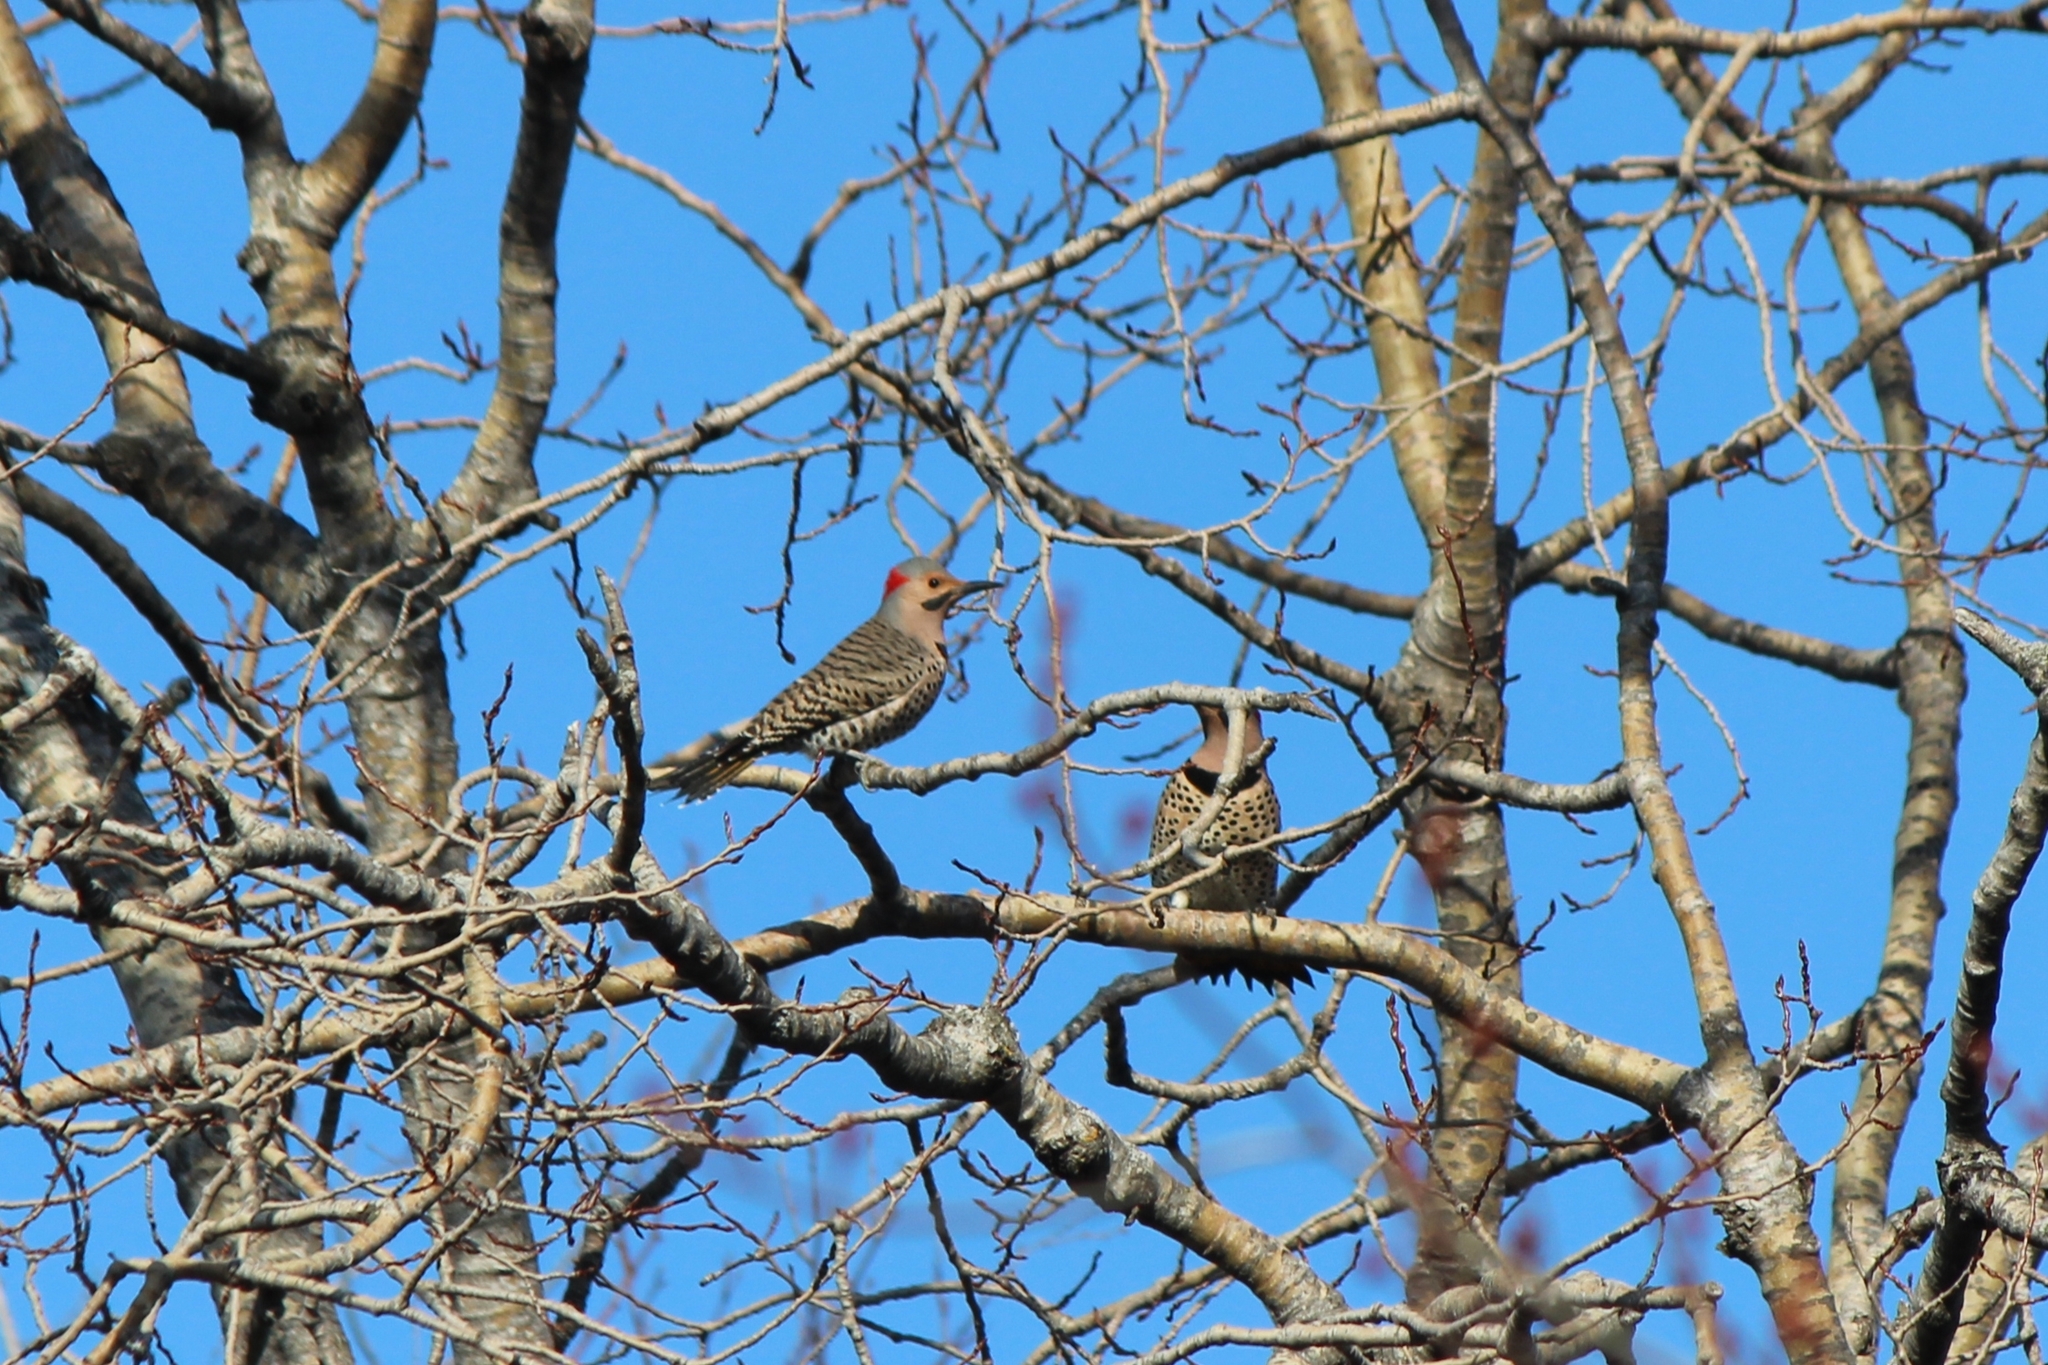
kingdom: Animalia
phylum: Chordata
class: Aves
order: Piciformes
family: Picidae
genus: Colaptes
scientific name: Colaptes auratus
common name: Northern flicker
